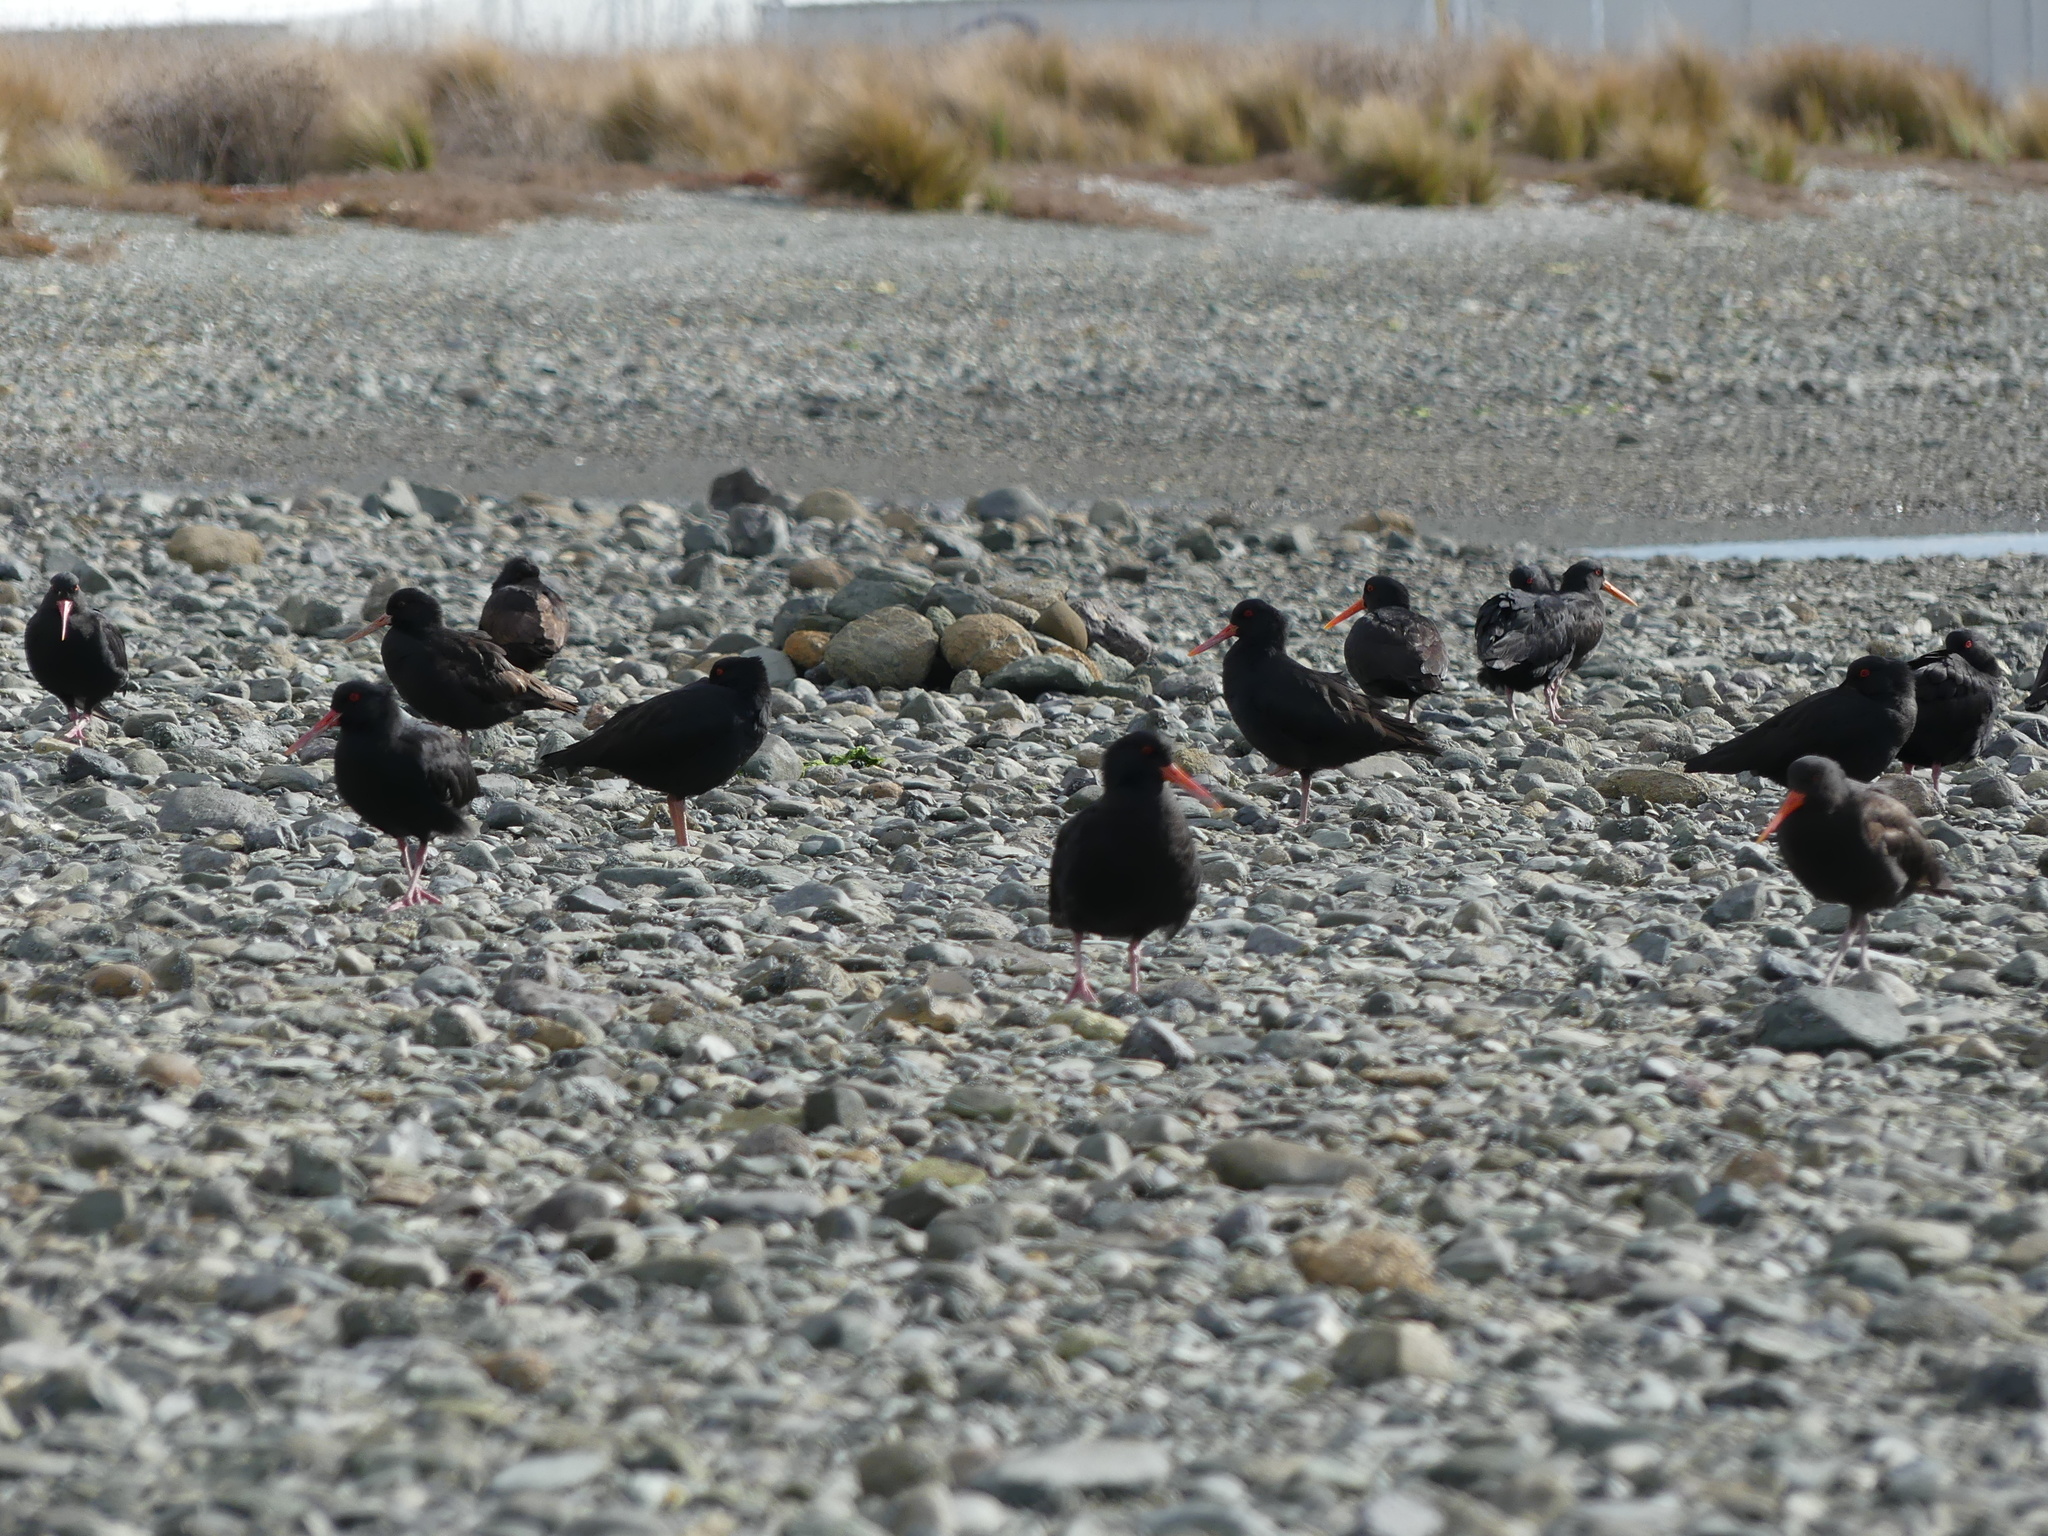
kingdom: Animalia
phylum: Chordata
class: Aves
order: Charadriiformes
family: Haematopodidae
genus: Haematopus
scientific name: Haematopus unicolor
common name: Variable oystercatcher
